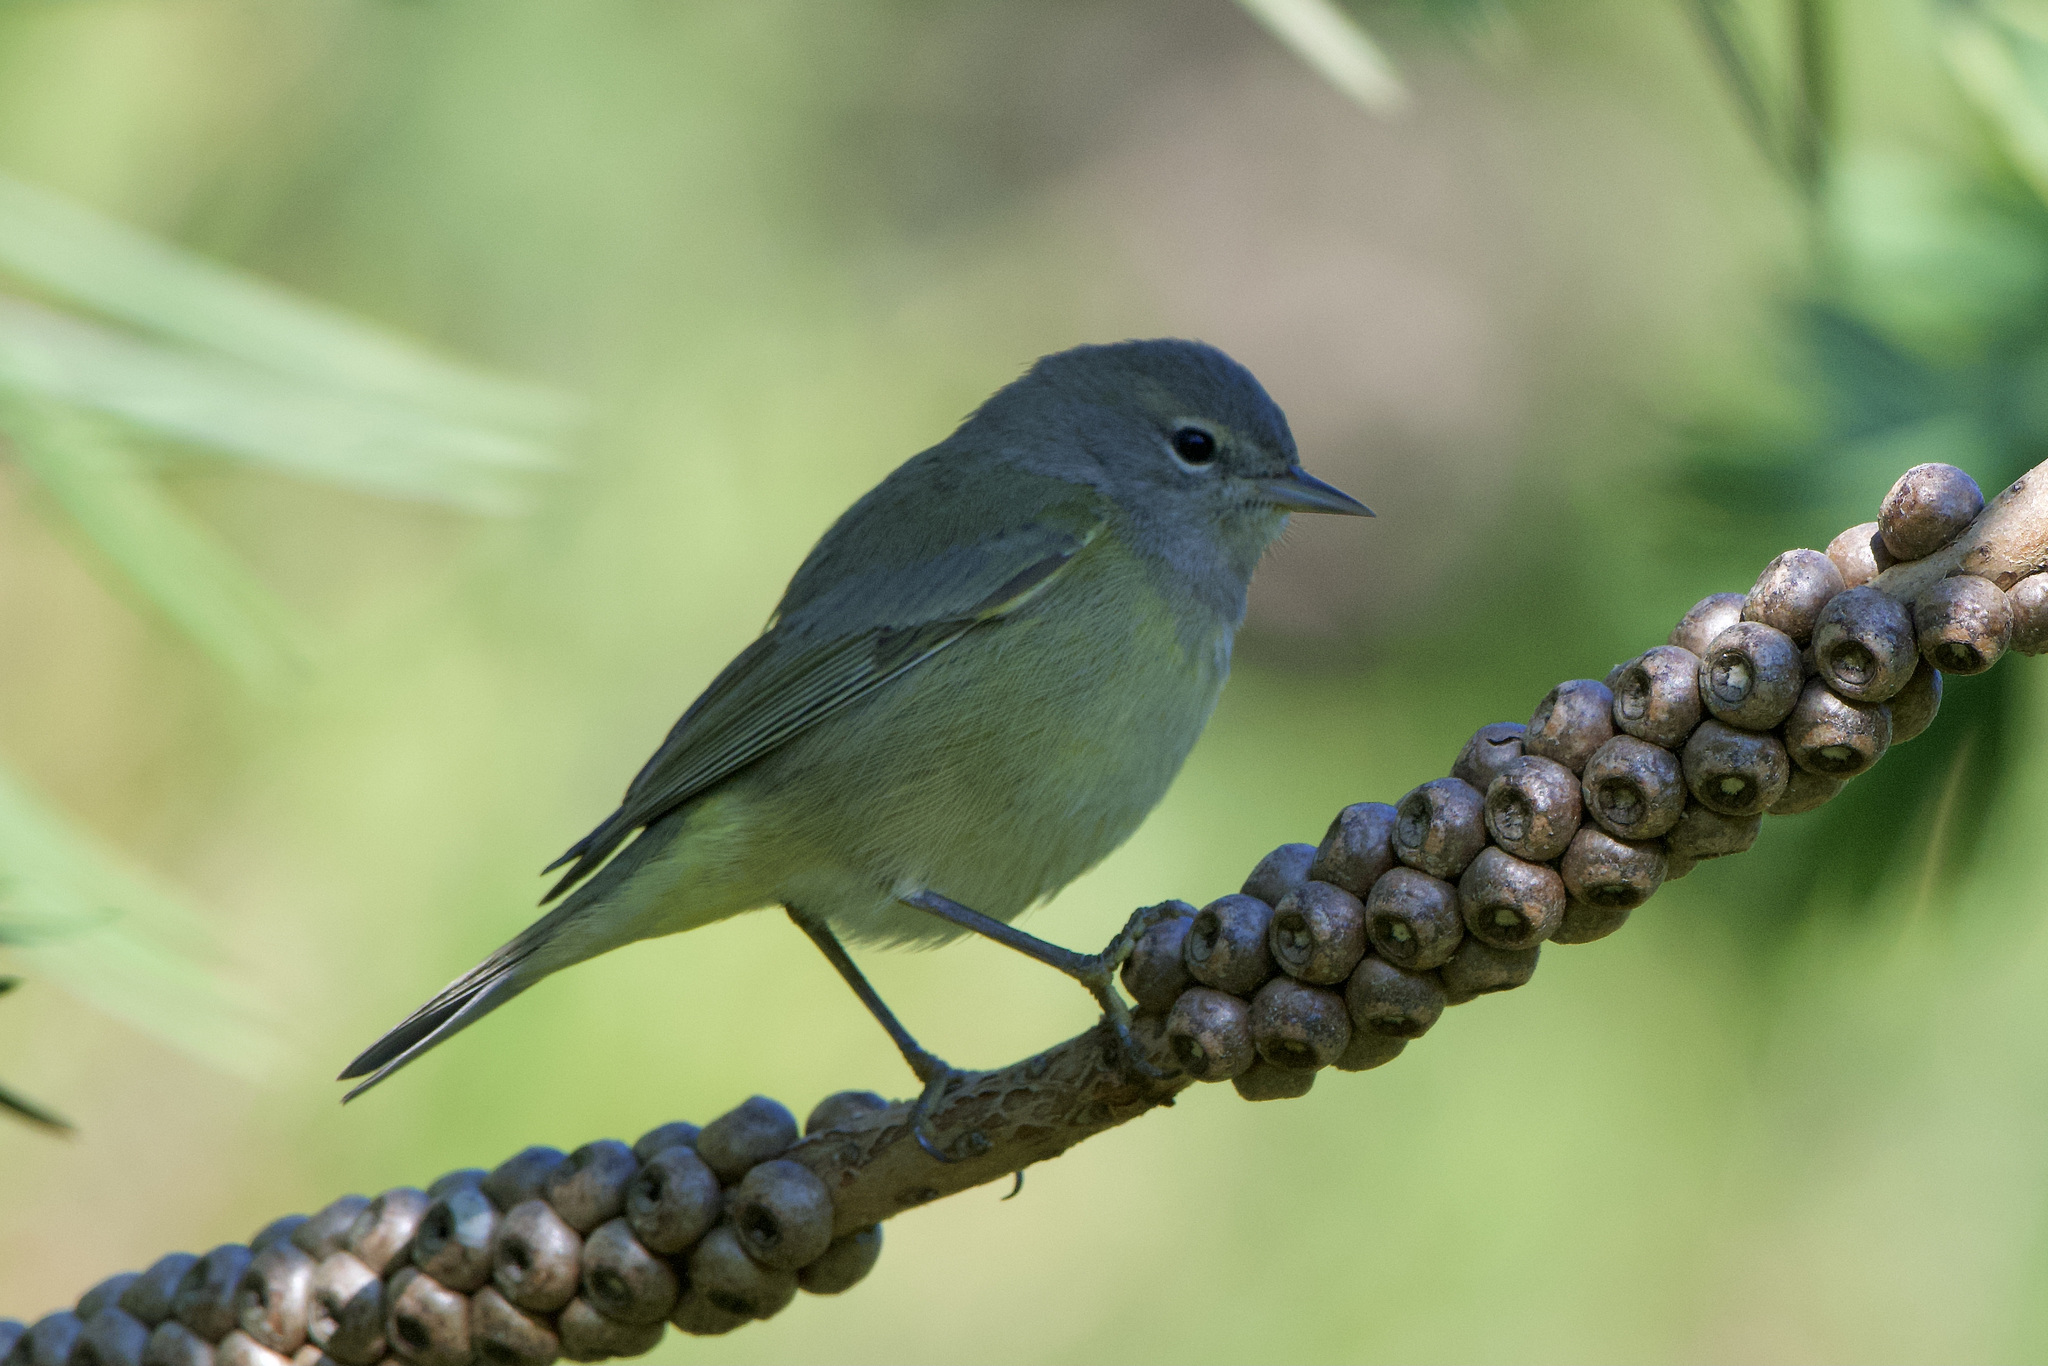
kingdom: Animalia
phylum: Chordata
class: Aves
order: Passeriformes
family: Parulidae
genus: Leiothlypis
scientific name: Leiothlypis celata
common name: Orange-crowned warbler
